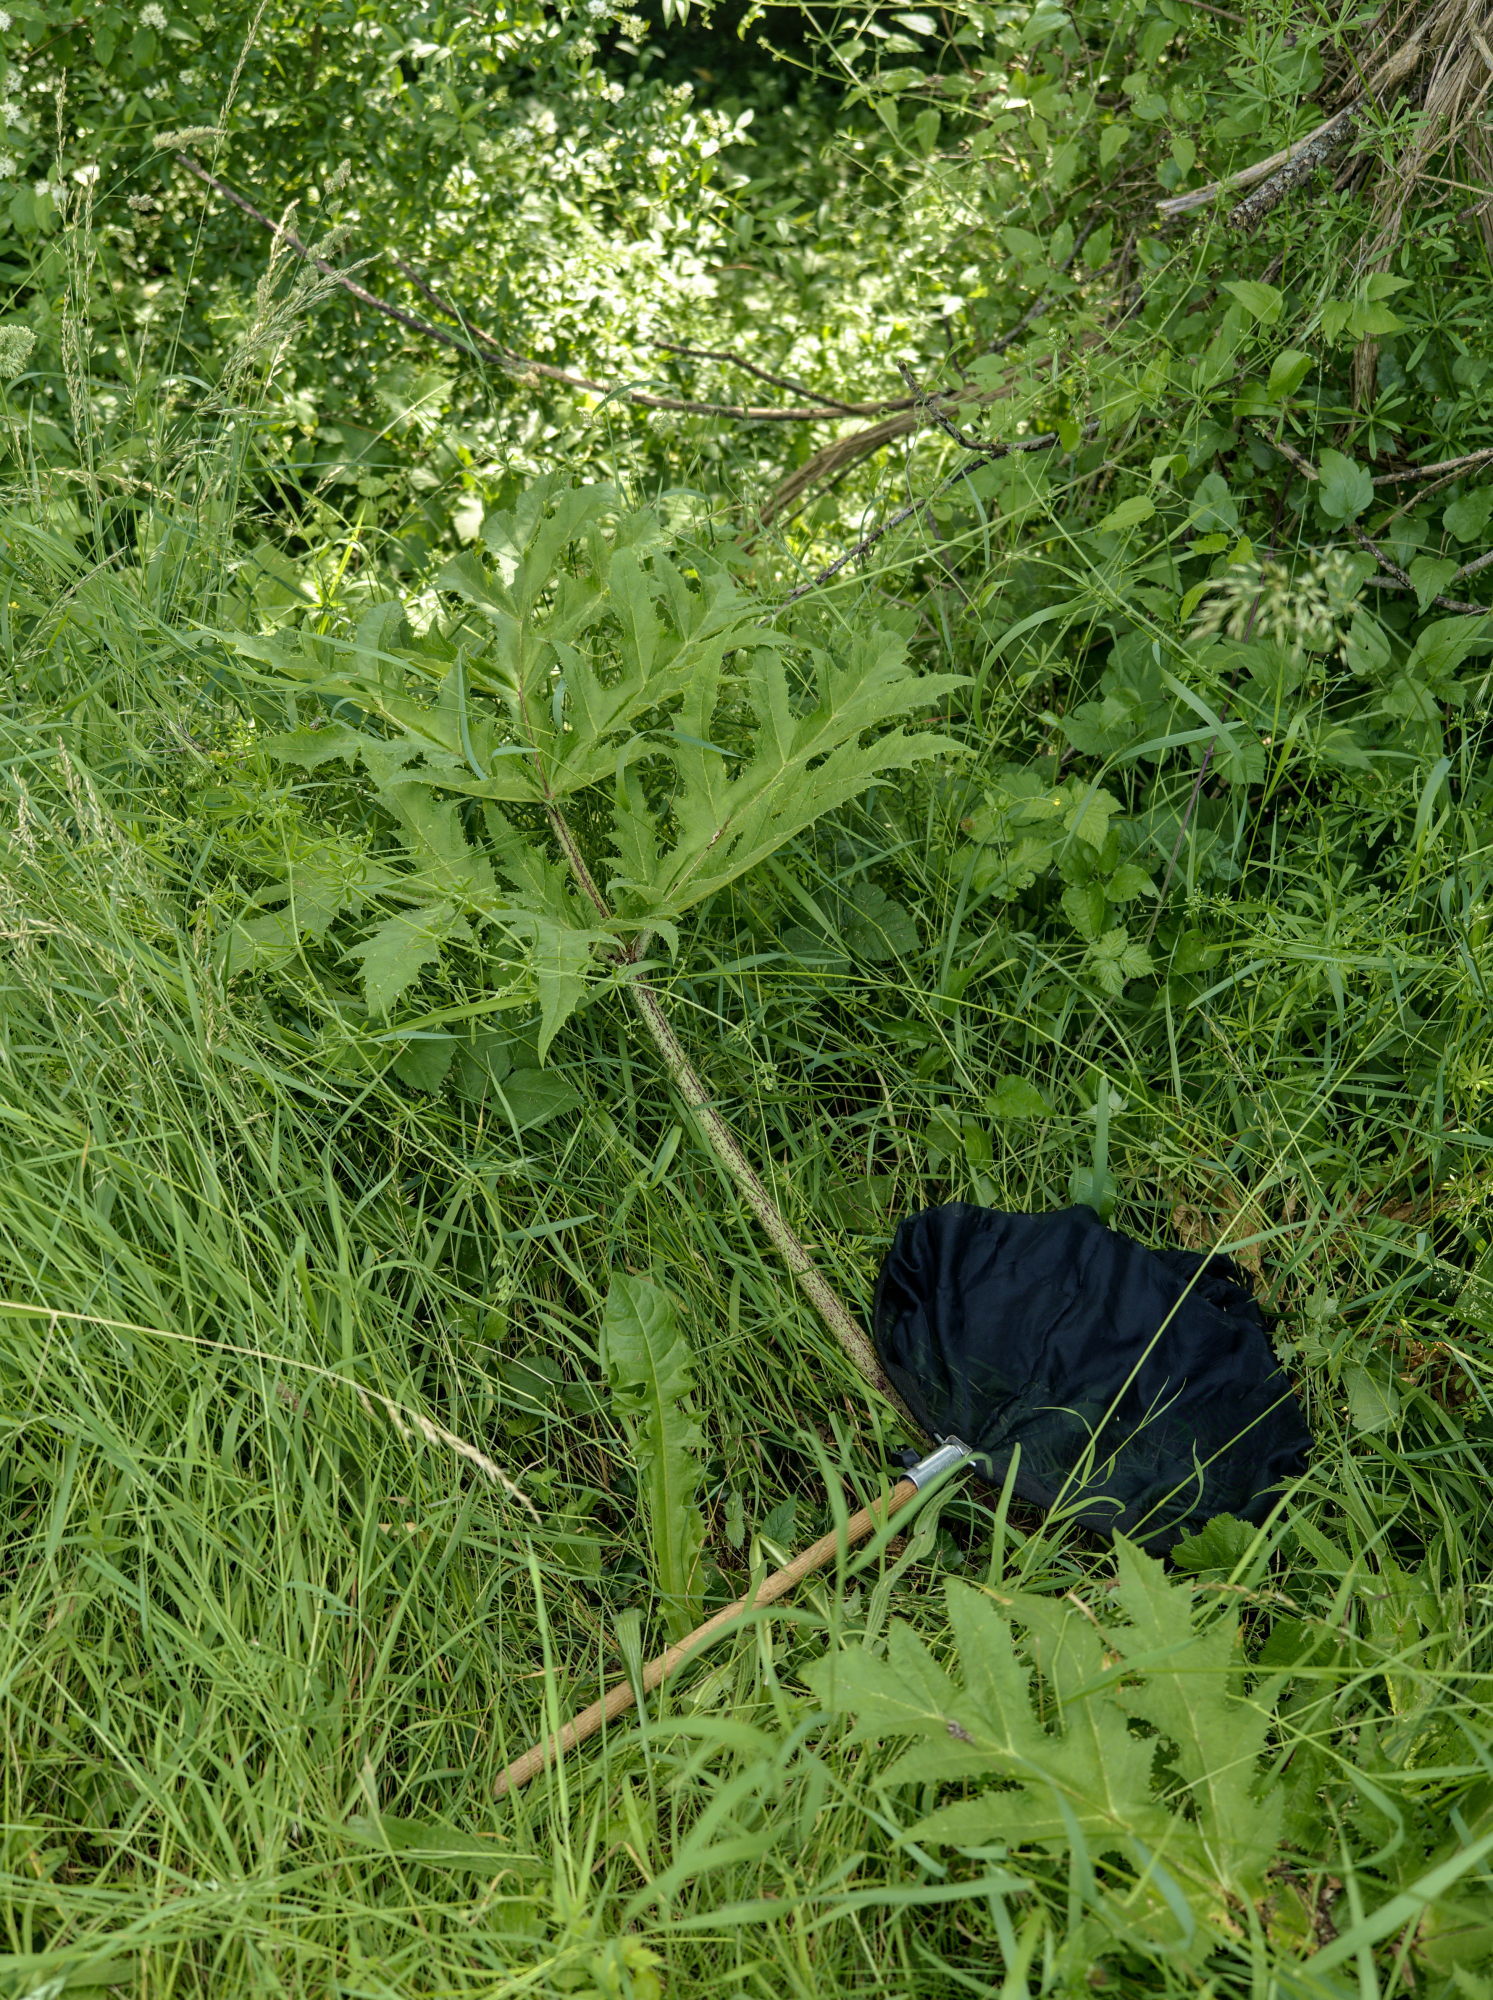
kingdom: Plantae
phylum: Tracheophyta
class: Magnoliopsida
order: Apiales
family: Apiaceae
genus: Heracleum
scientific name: Heracleum mantegazzianum
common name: Giant hogweed
